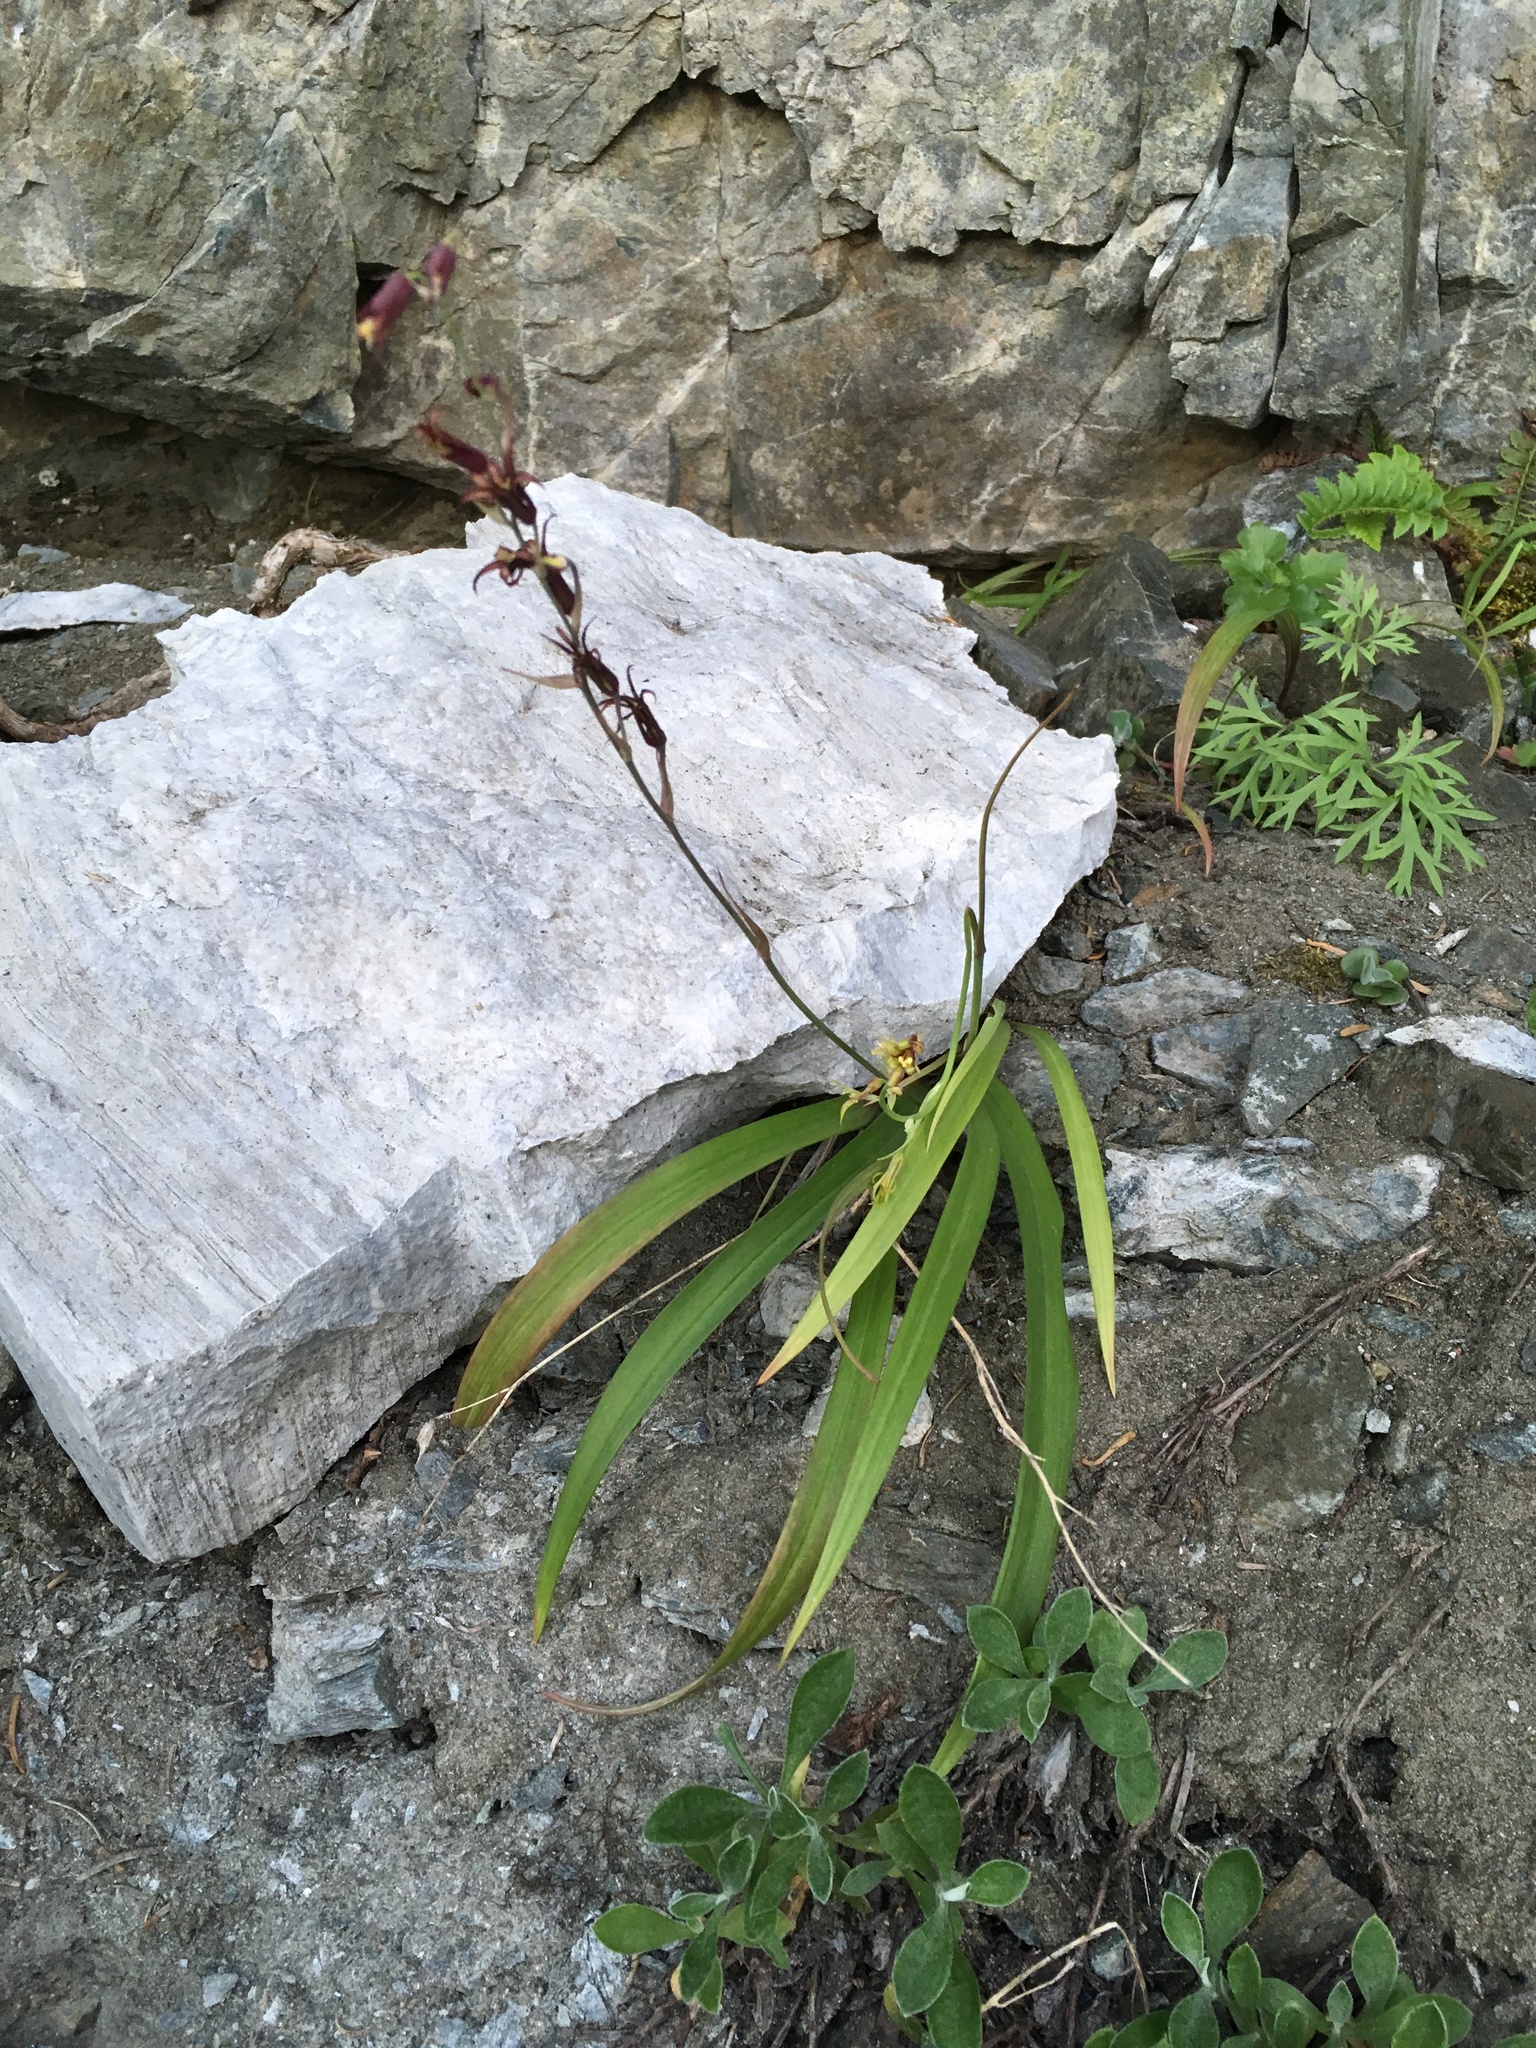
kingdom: Plantae
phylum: Tracheophyta
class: Liliopsida
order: Liliales
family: Melanthiaceae
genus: Anticlea
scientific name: Anticlea occidentalis
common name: Bronze-bells
